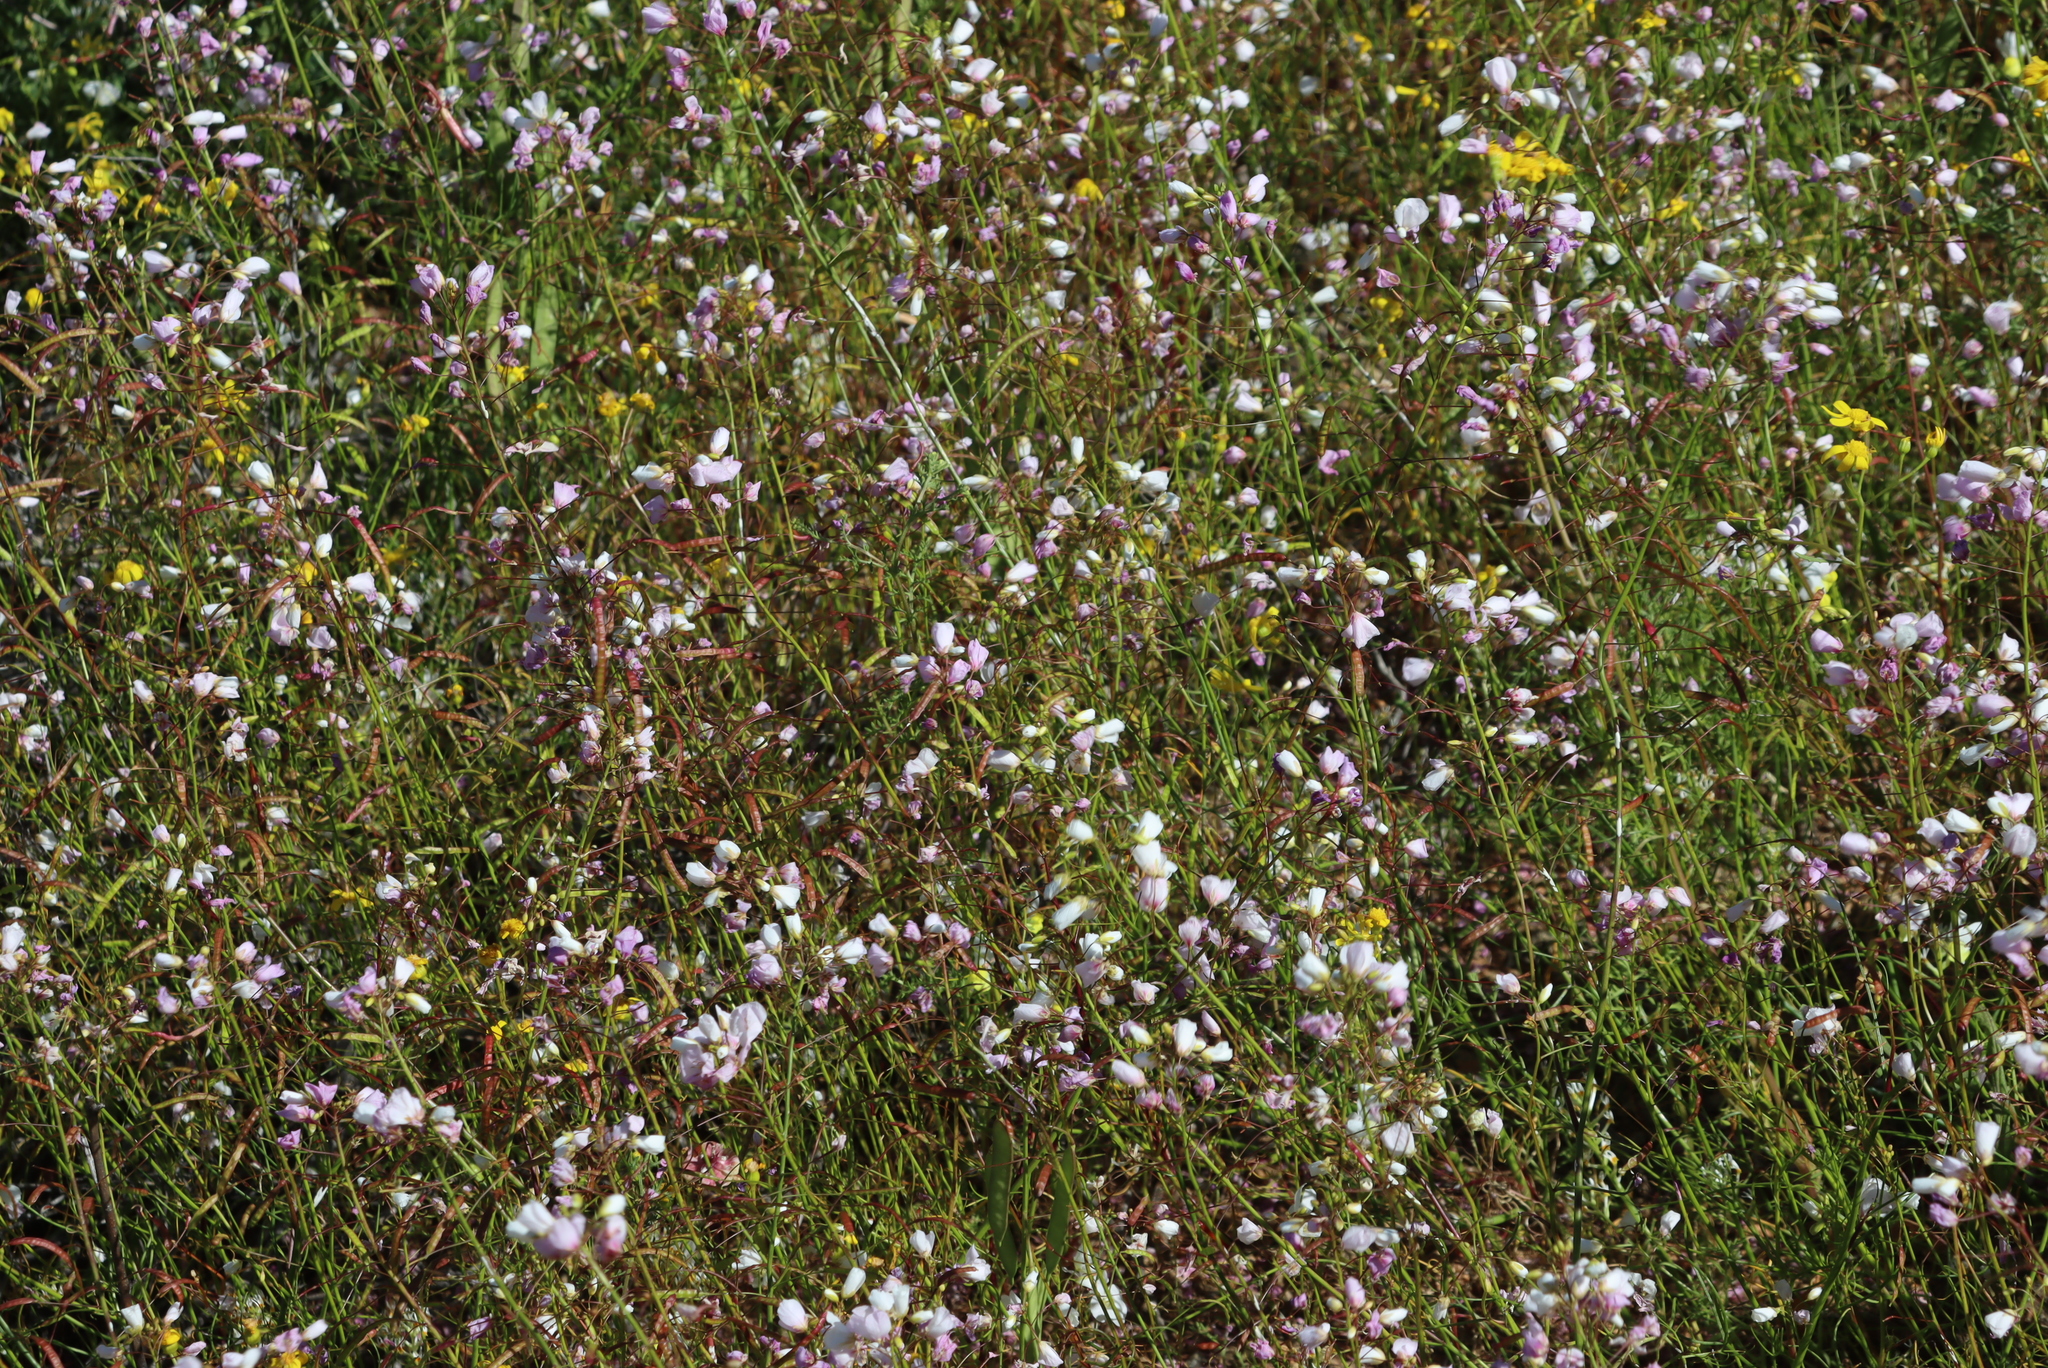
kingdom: Plantae
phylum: Tracheophyta
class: Magnoliopsida
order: Brassicales
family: Brassicaceae
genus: Heliophila
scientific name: Heliophila laciniata
